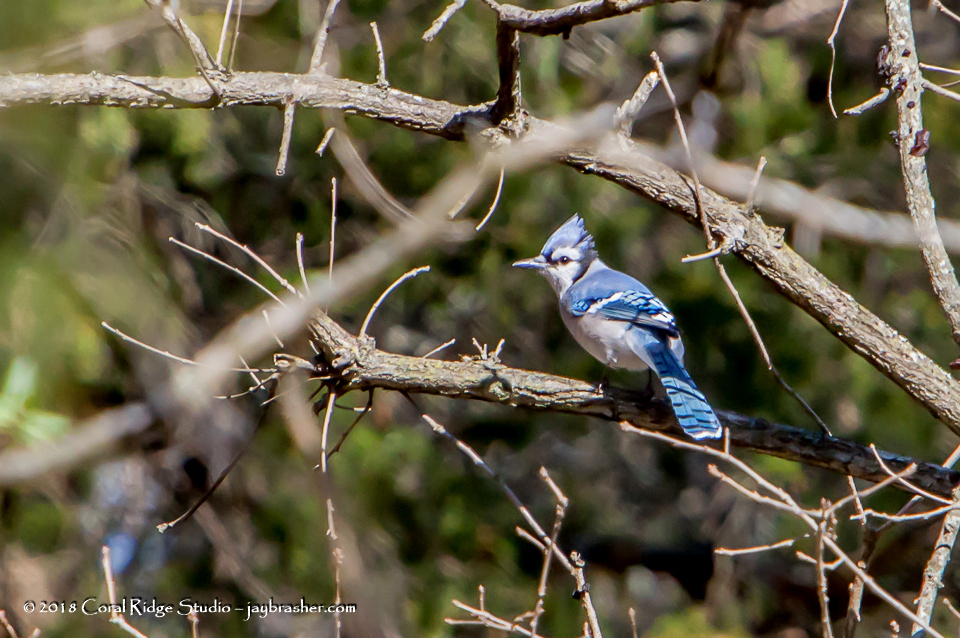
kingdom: Animalia
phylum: Chordata
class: Aves
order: Passeriformes
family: Corvidae
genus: Cyanocitta
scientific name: Cyanocitta cristata
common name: Blue jay
